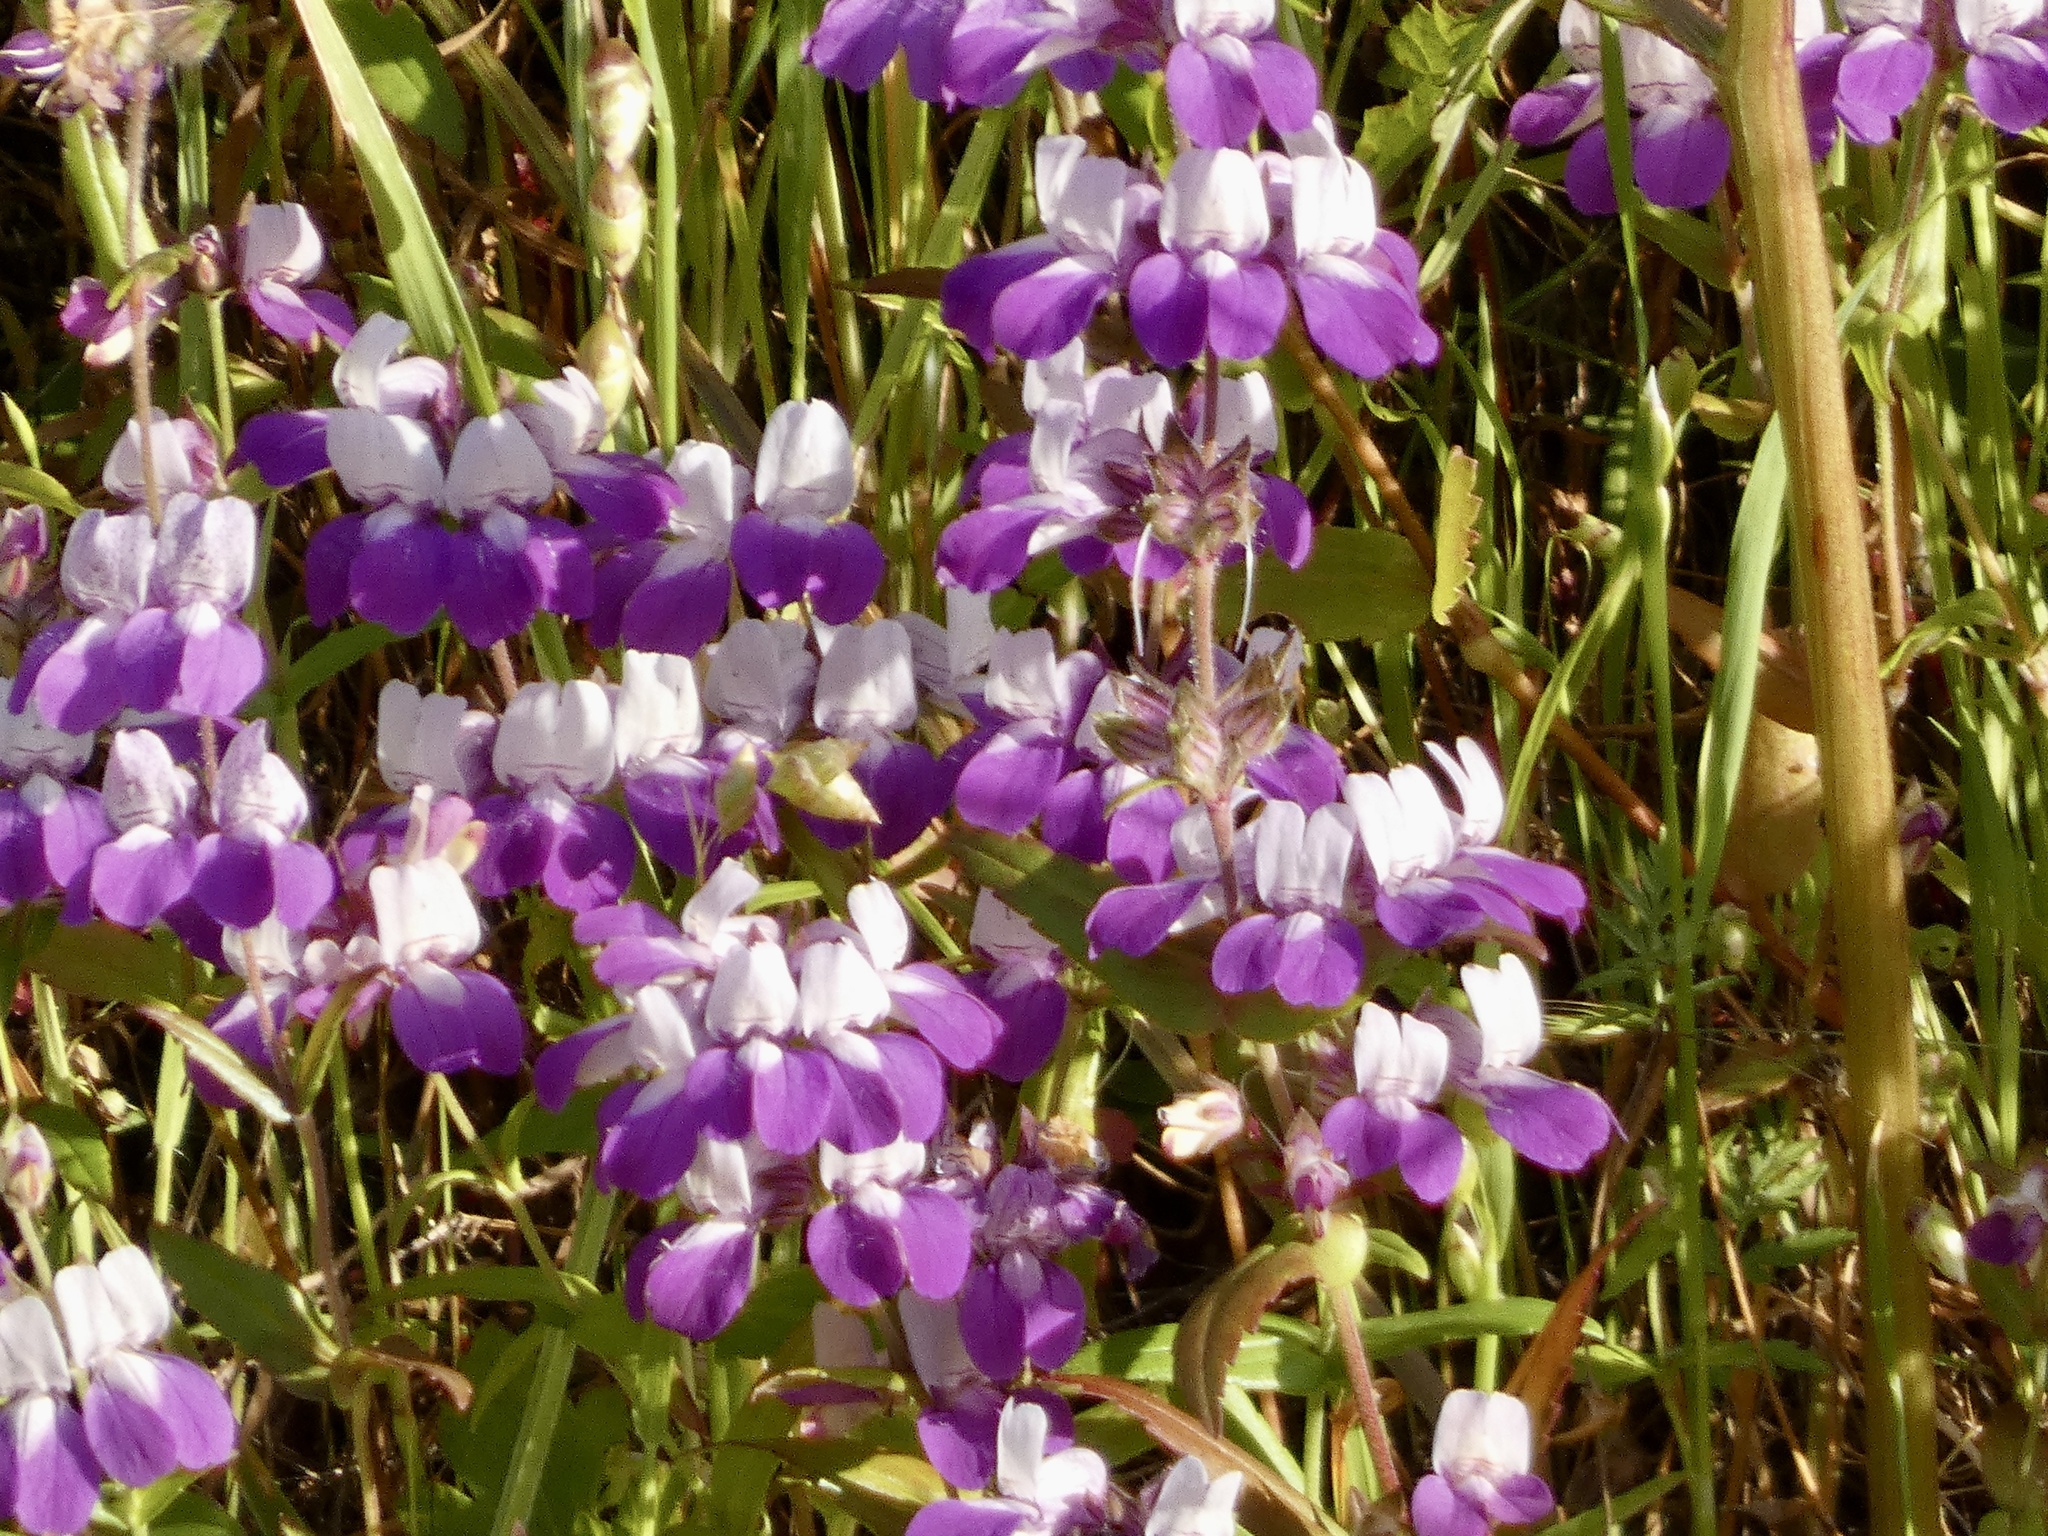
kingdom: Plantae
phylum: Tracheophyta
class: Magnoliopsida
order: Lamiales
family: Plantaginaceae
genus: Collinsia
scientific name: Collinsia heterophylla
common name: Chinese-houses
